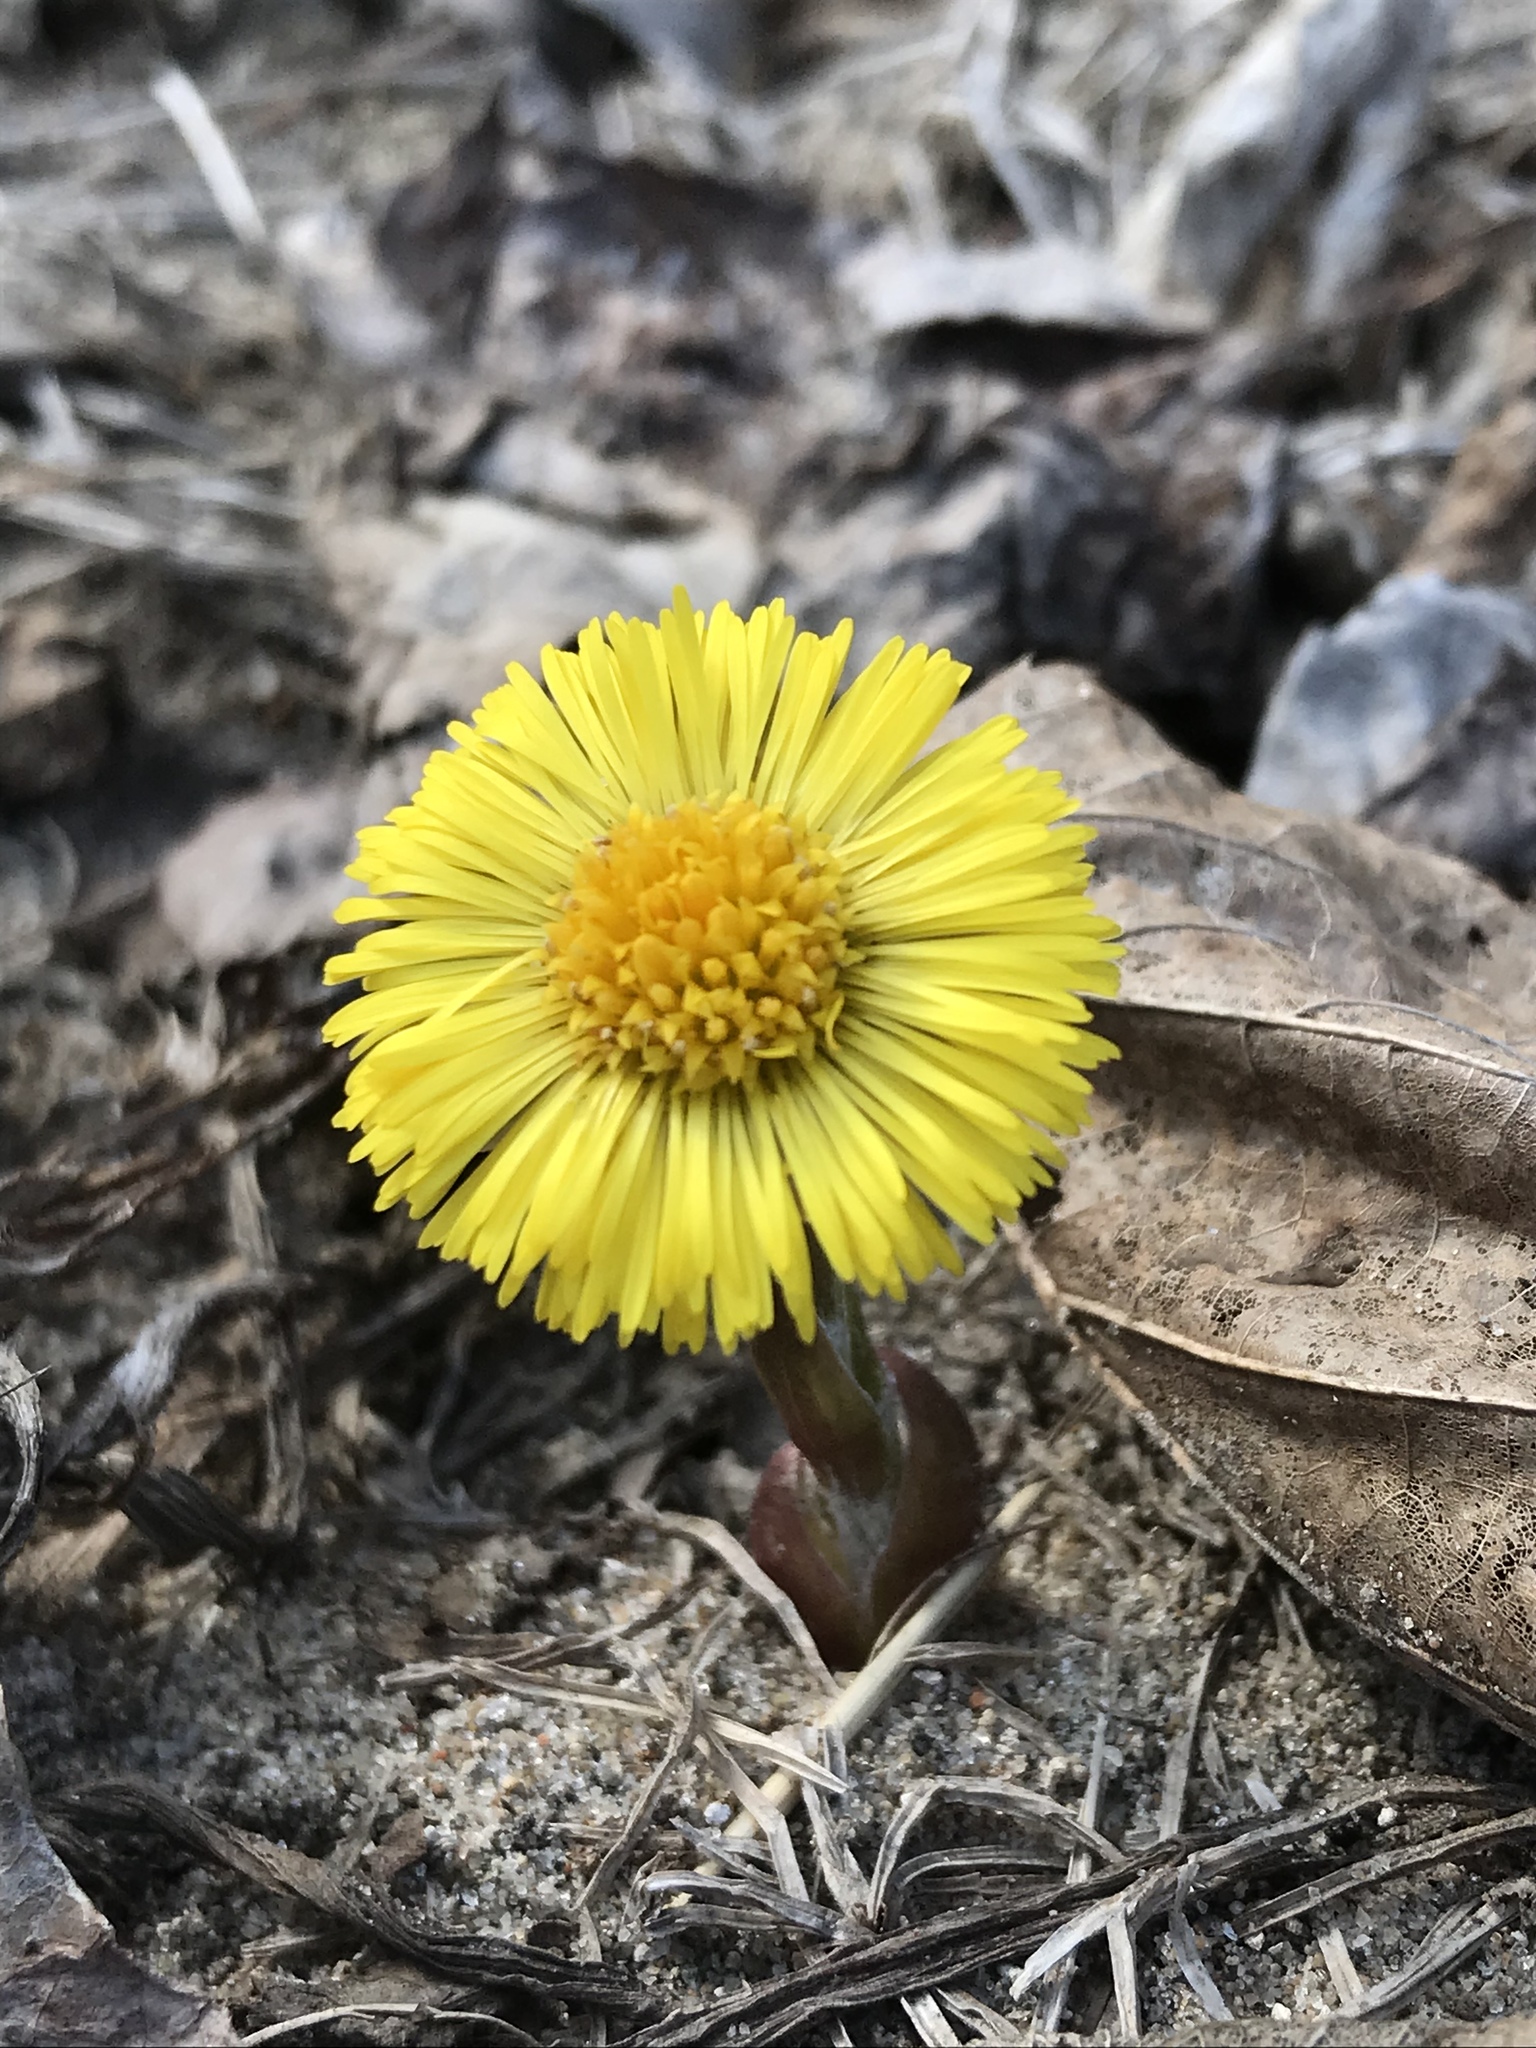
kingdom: Plantae
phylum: Tracheophyta
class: Magnoliopsida
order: Asterales
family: Asteraceae
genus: Tussilago
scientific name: Tussilago farfara
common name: Coltsfoot
